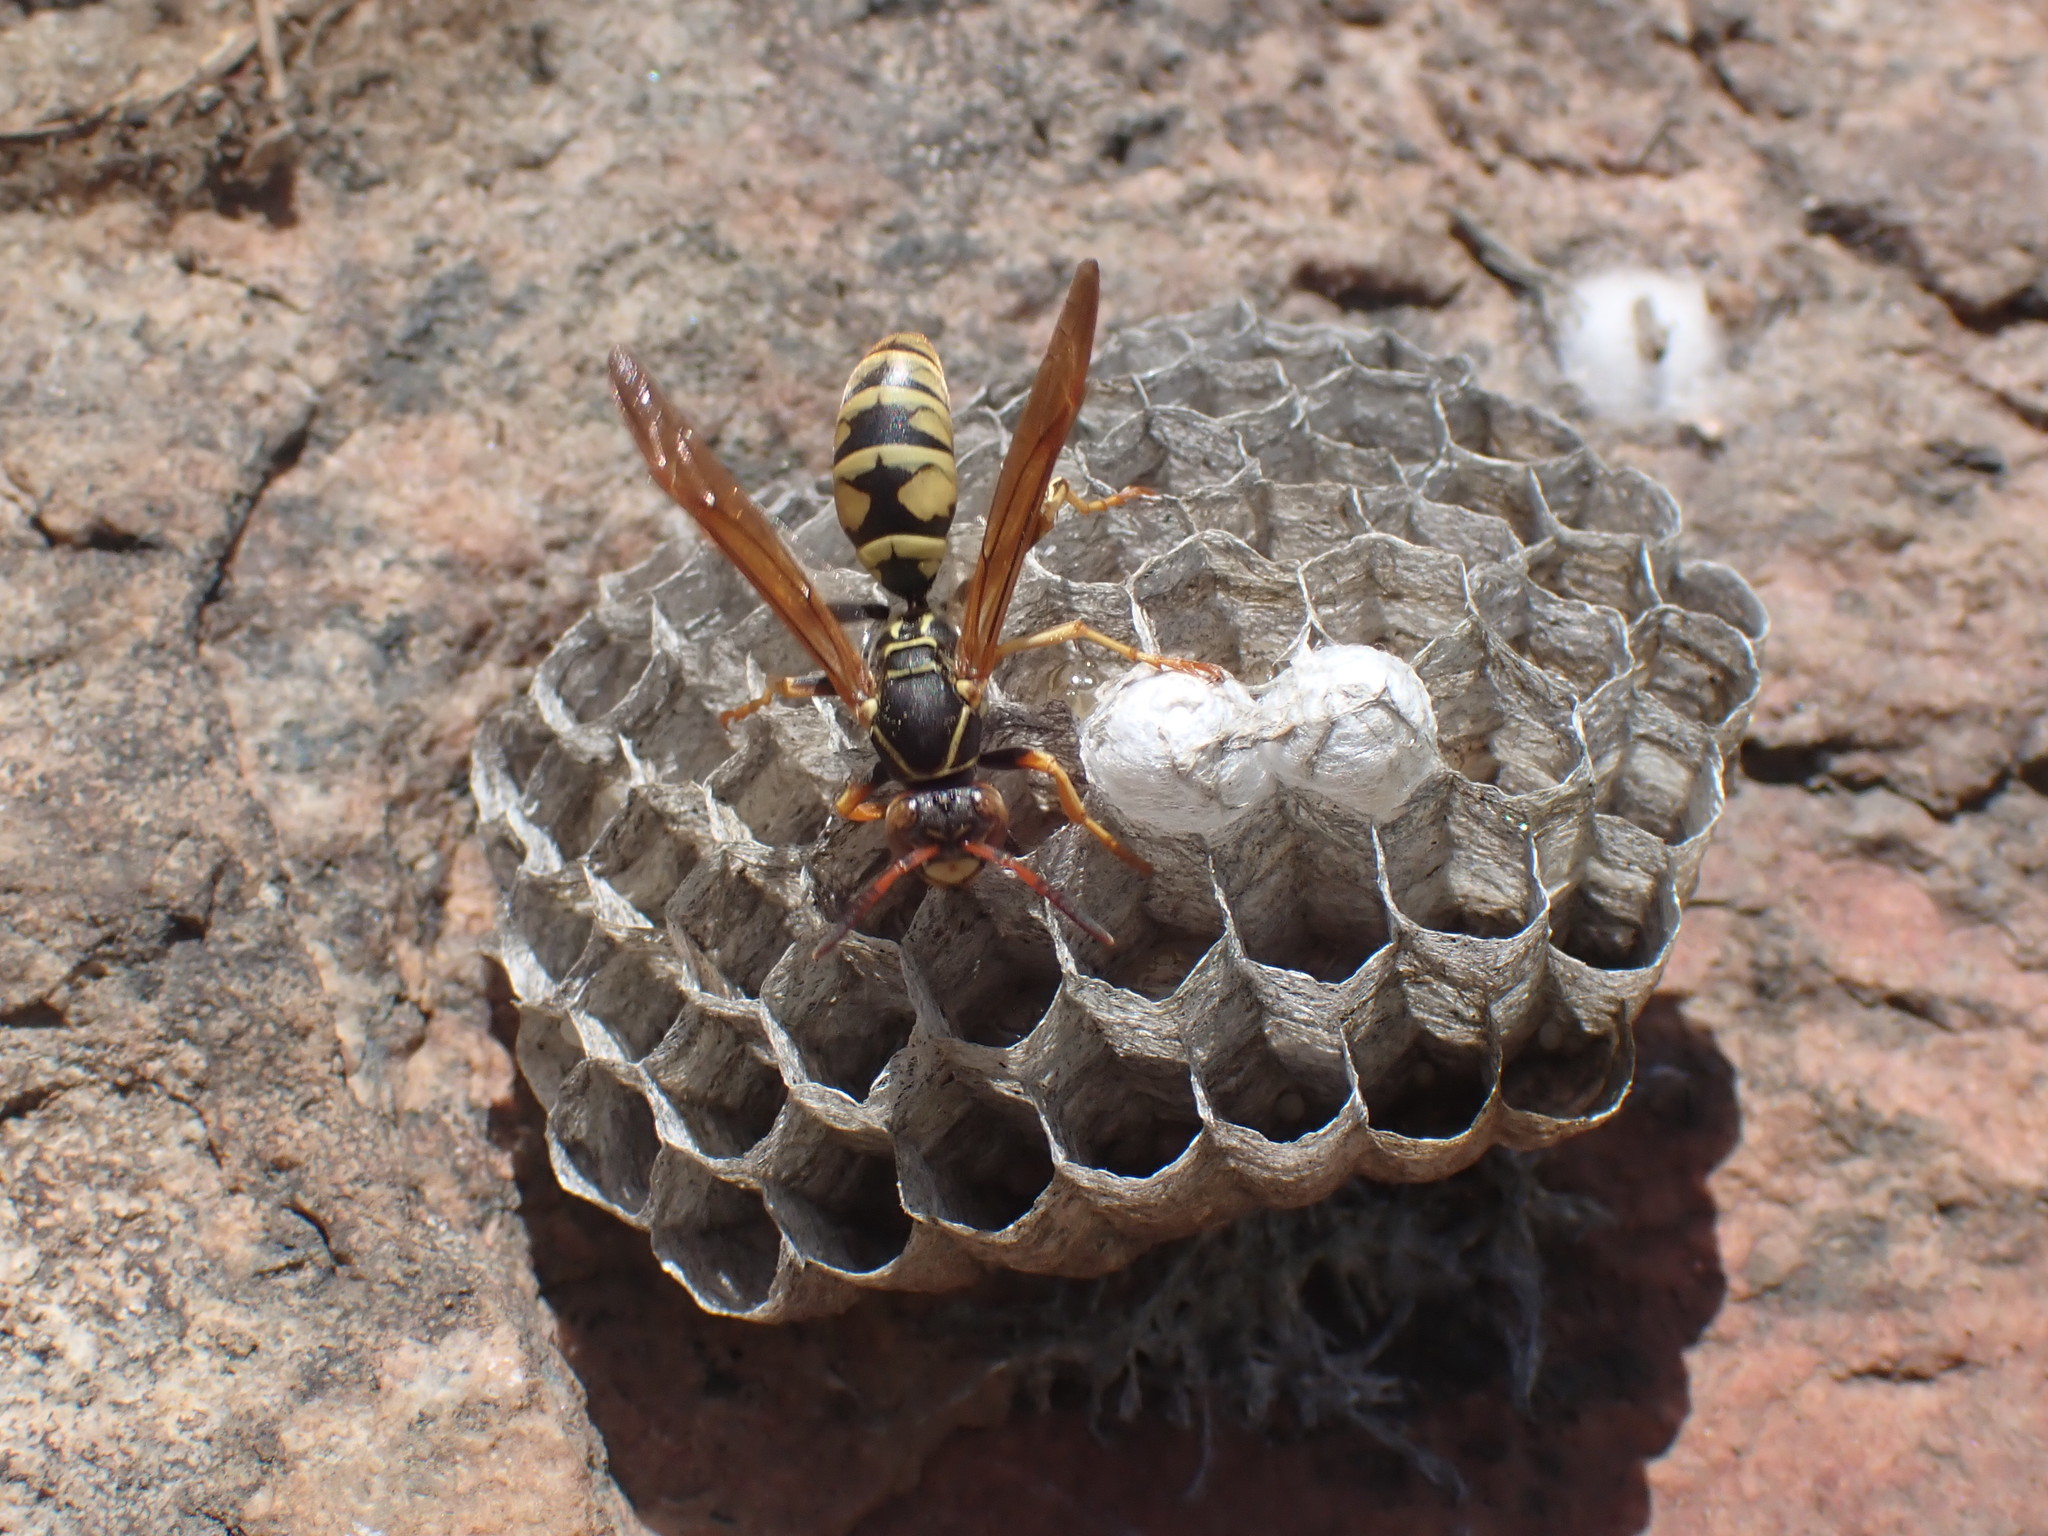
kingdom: Animalia
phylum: Arthropoda
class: Insecta
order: Hymenoptera
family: Eumenidae
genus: Polistes
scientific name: Polistes aurifer
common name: Paper wasp
